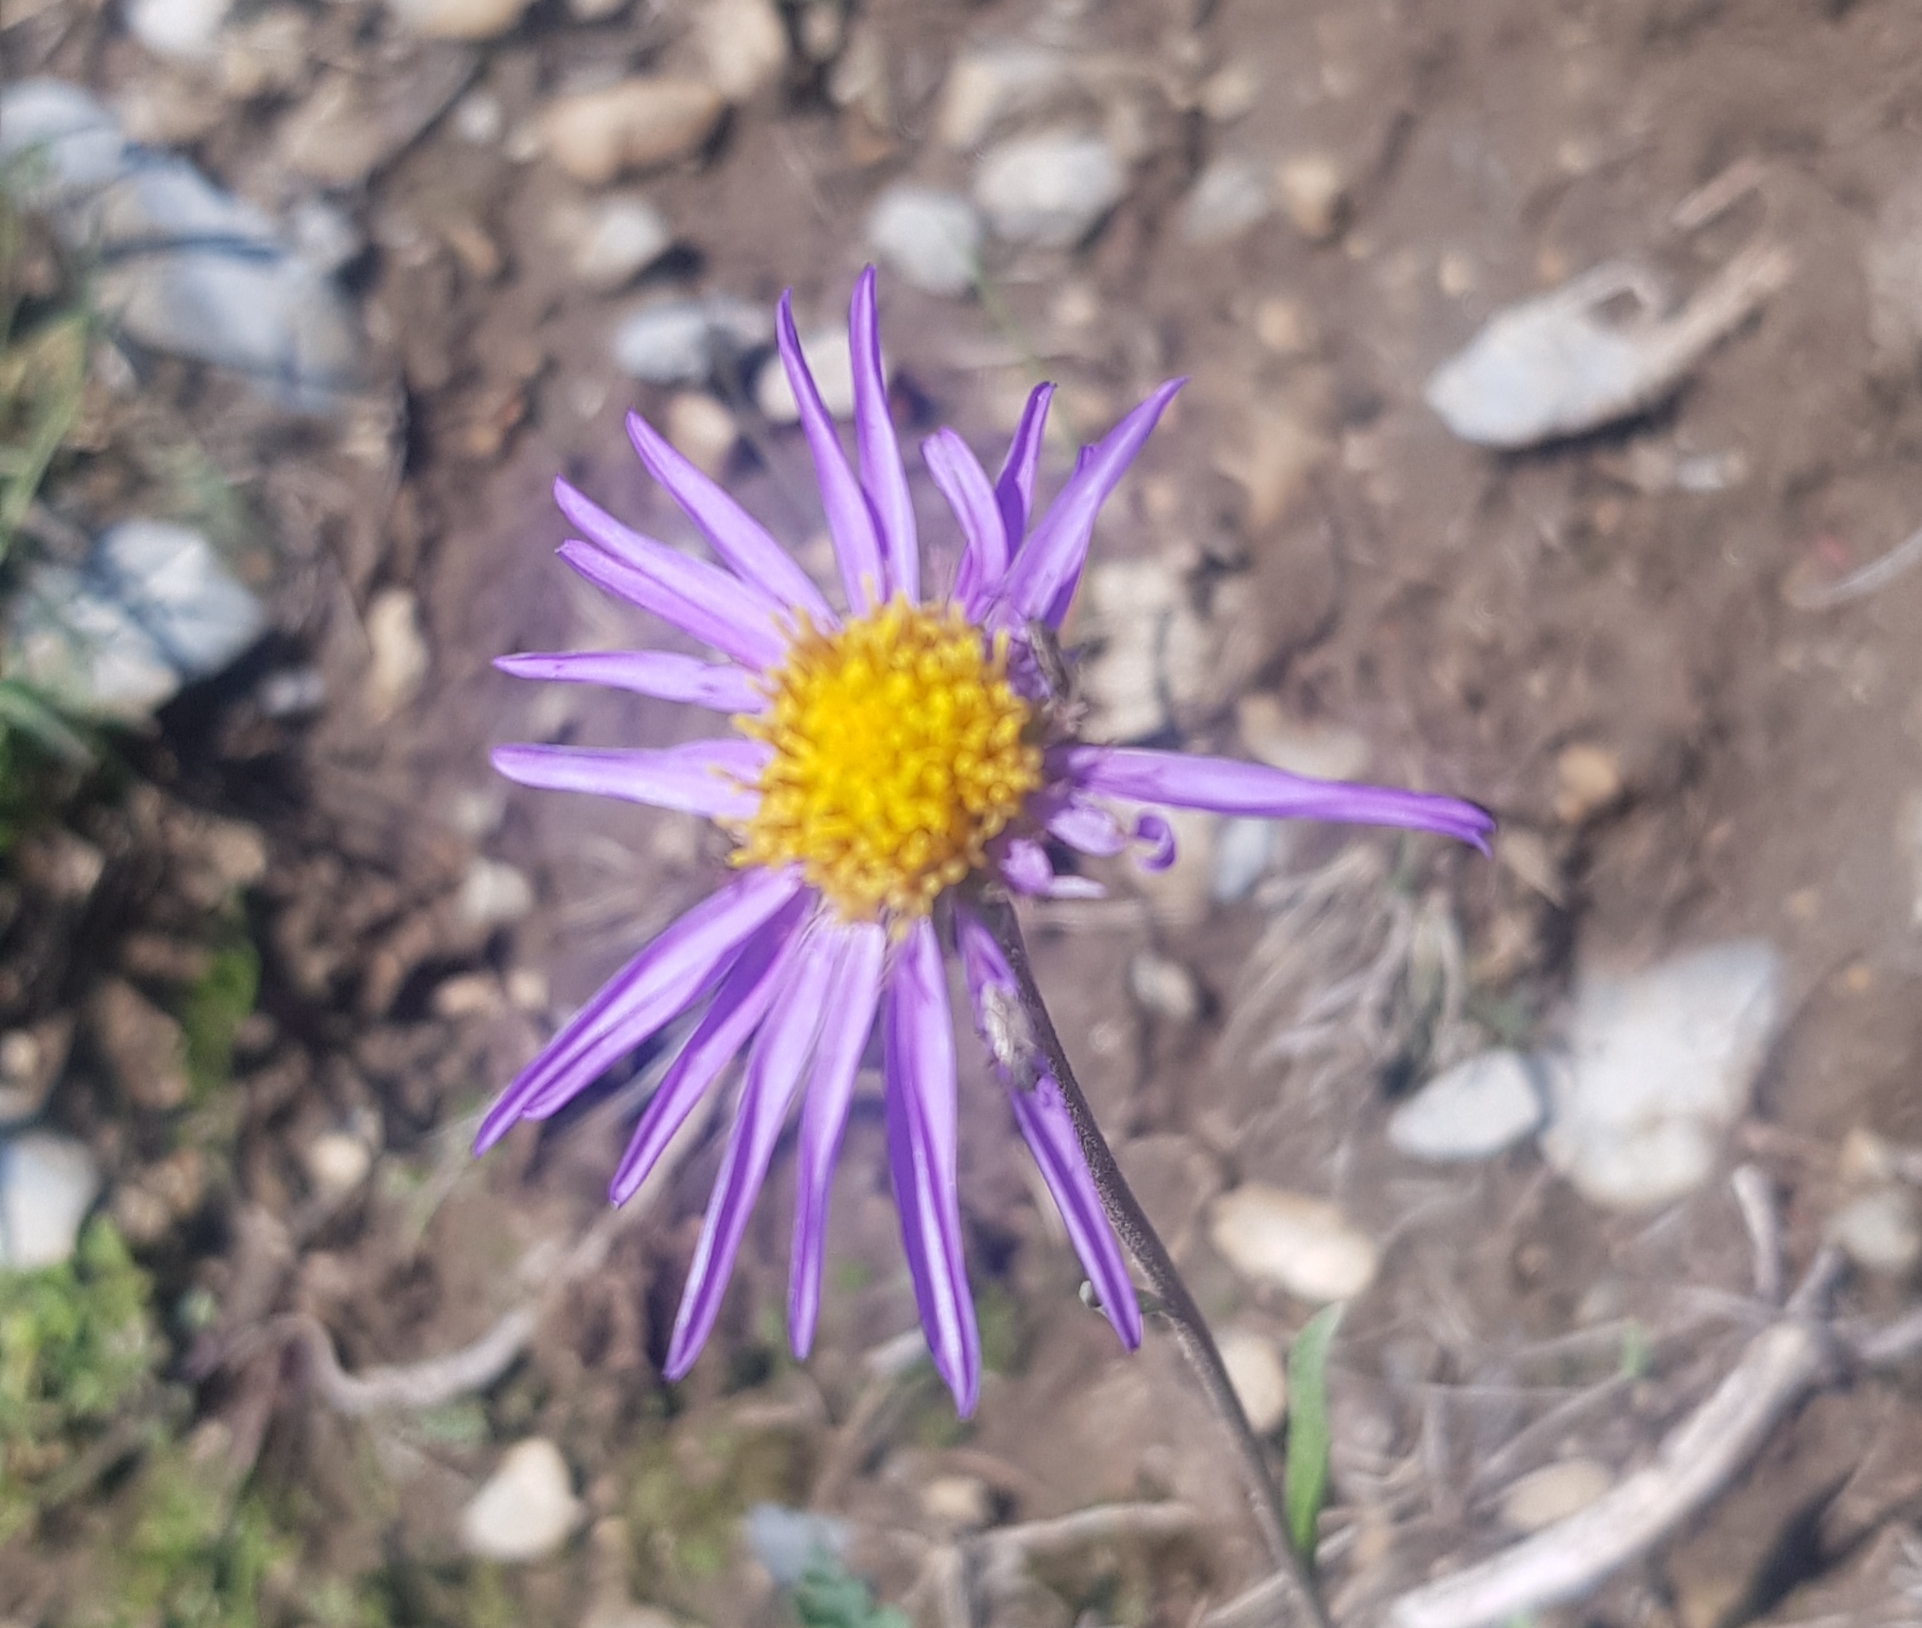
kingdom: Plantae
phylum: Tracheophyta
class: Magnoliopsida
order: Asterales
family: Asteraceae
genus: Aster
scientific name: Aster alpinus
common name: Alpine aster
